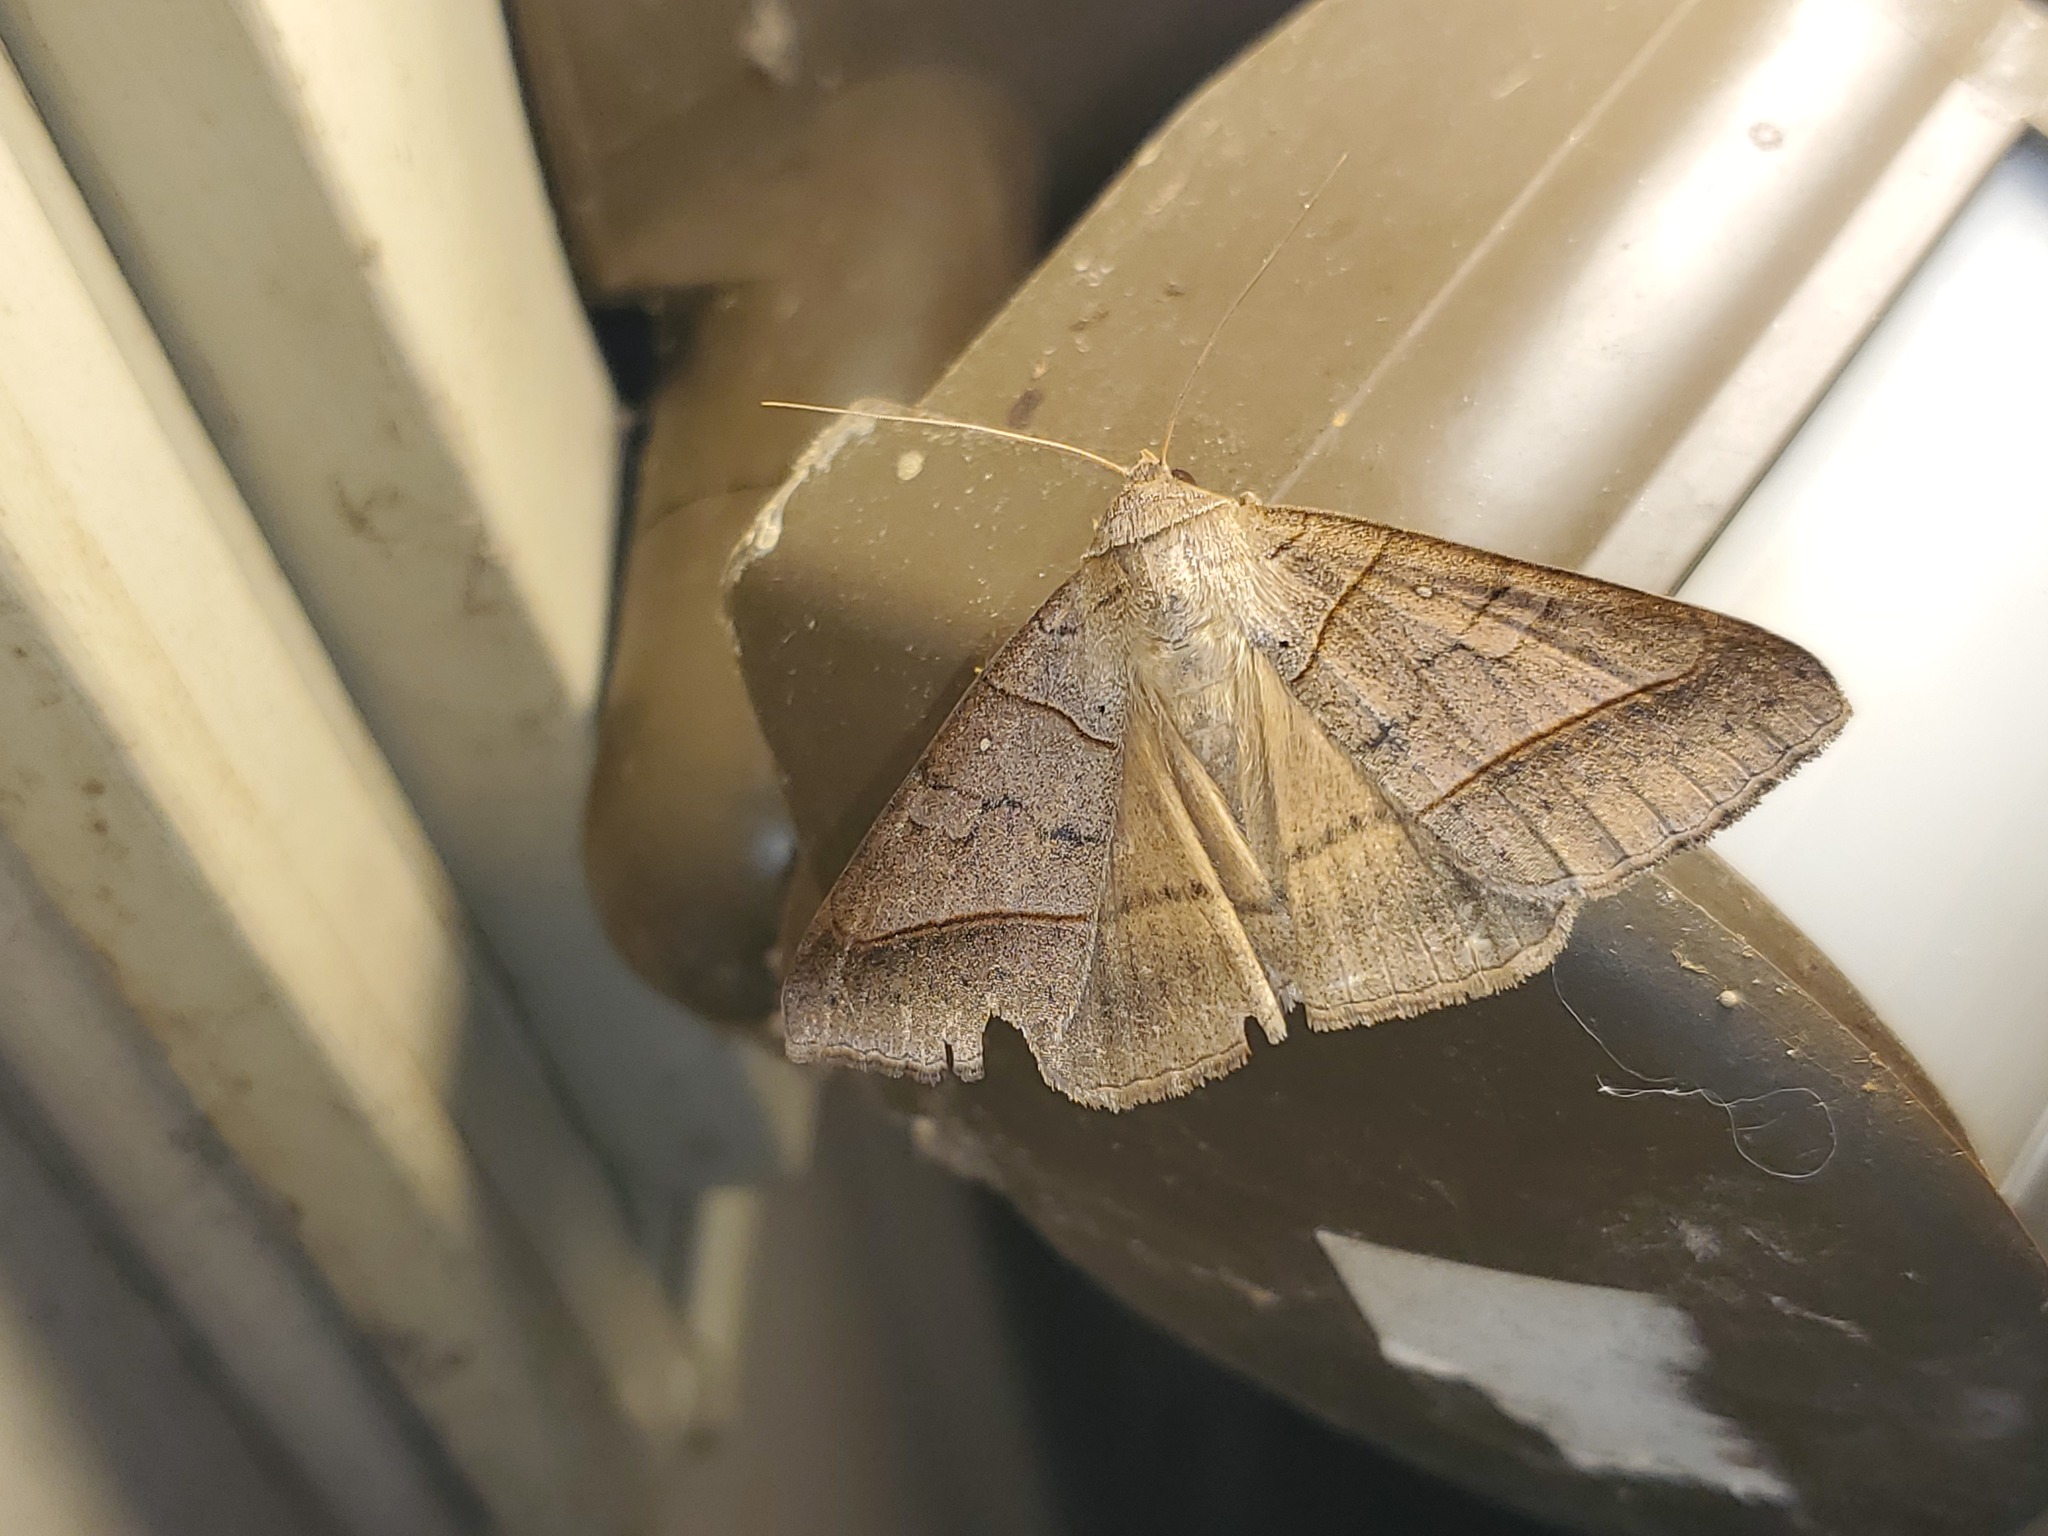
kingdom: Animalia
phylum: Arthropoda
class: Insecta
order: Lepidoptera
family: Erebidae
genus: Mocis
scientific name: Mocis texana
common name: Texas mocis moth
